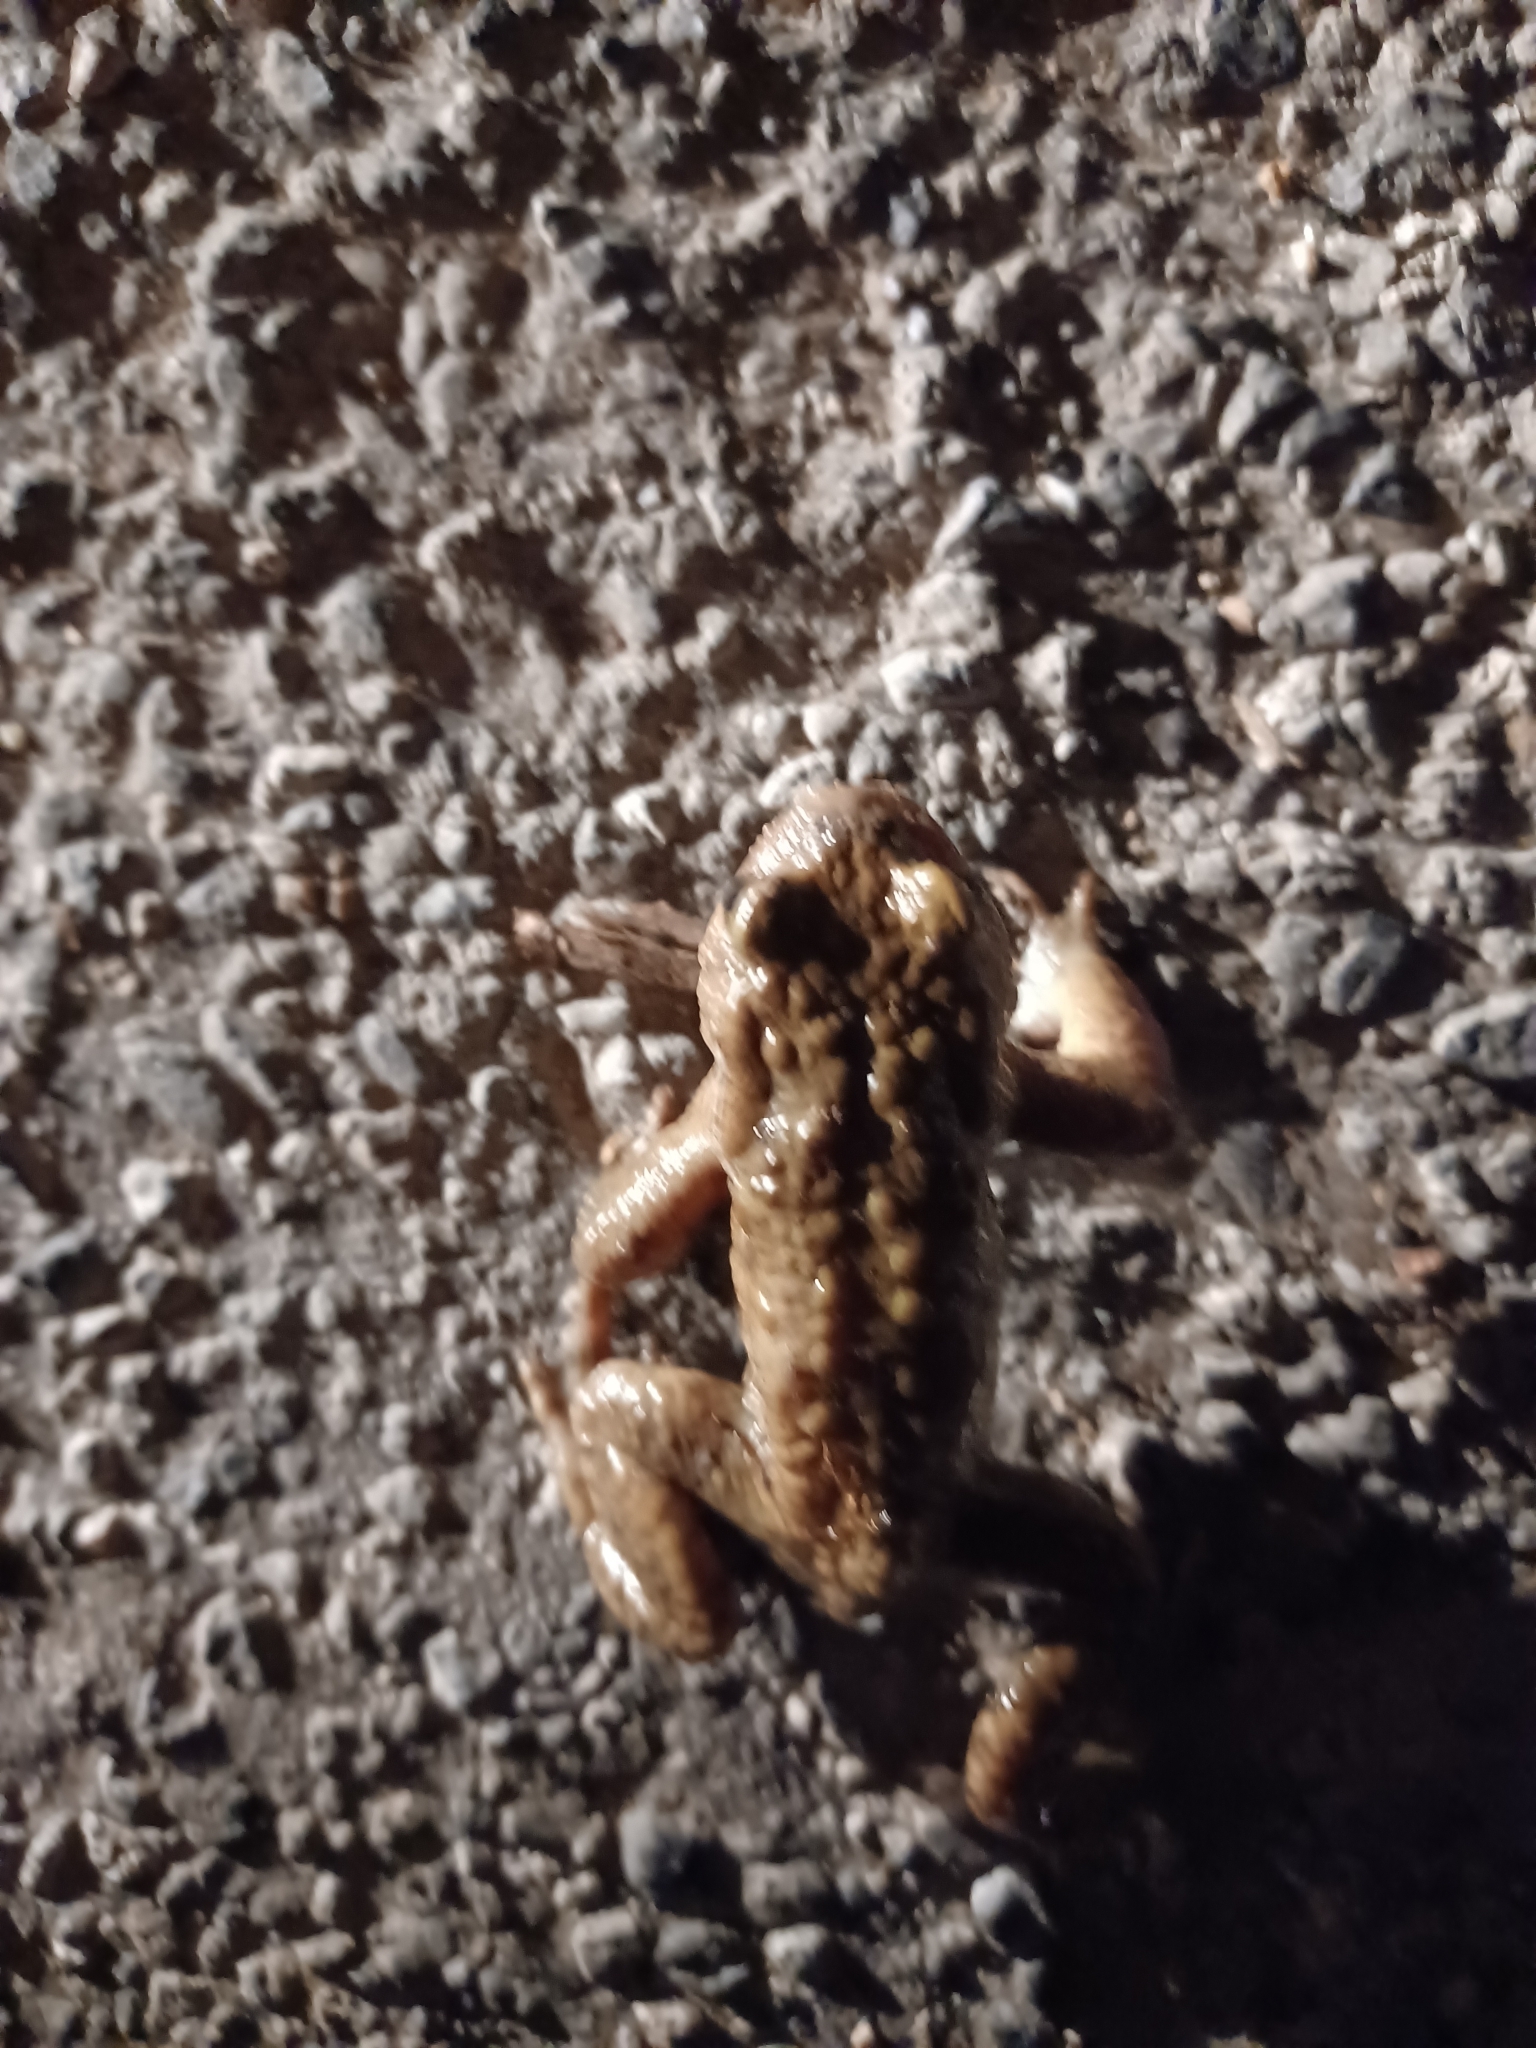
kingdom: Animalia
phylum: Chordata
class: Amphibia
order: Anura
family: Bufonidae
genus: Bufo
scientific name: Bufo bufo
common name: Common toad
